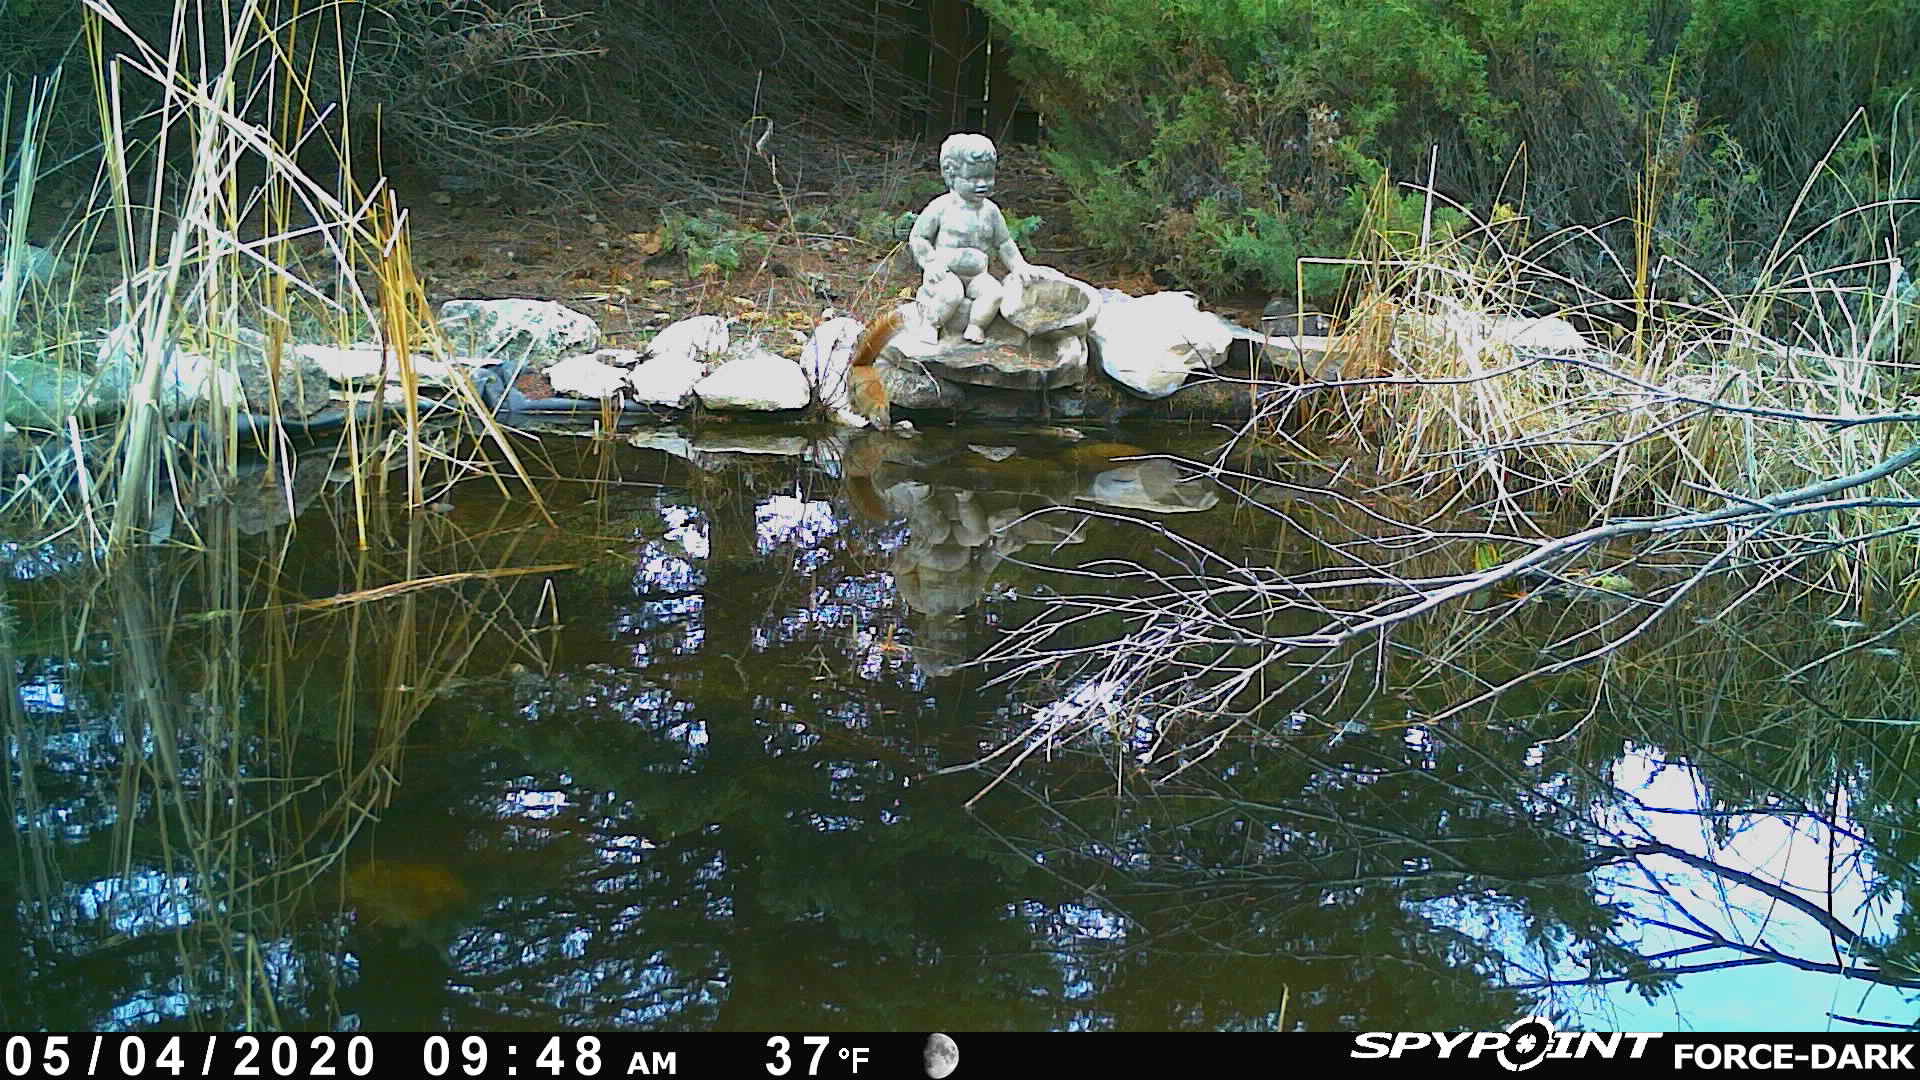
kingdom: Animalia
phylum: Chordata
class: Mammalia
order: Rodentia
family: Sciuridae
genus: Tamiasciurus
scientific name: Tamiasciurus hudsonicus
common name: Red squirrel
